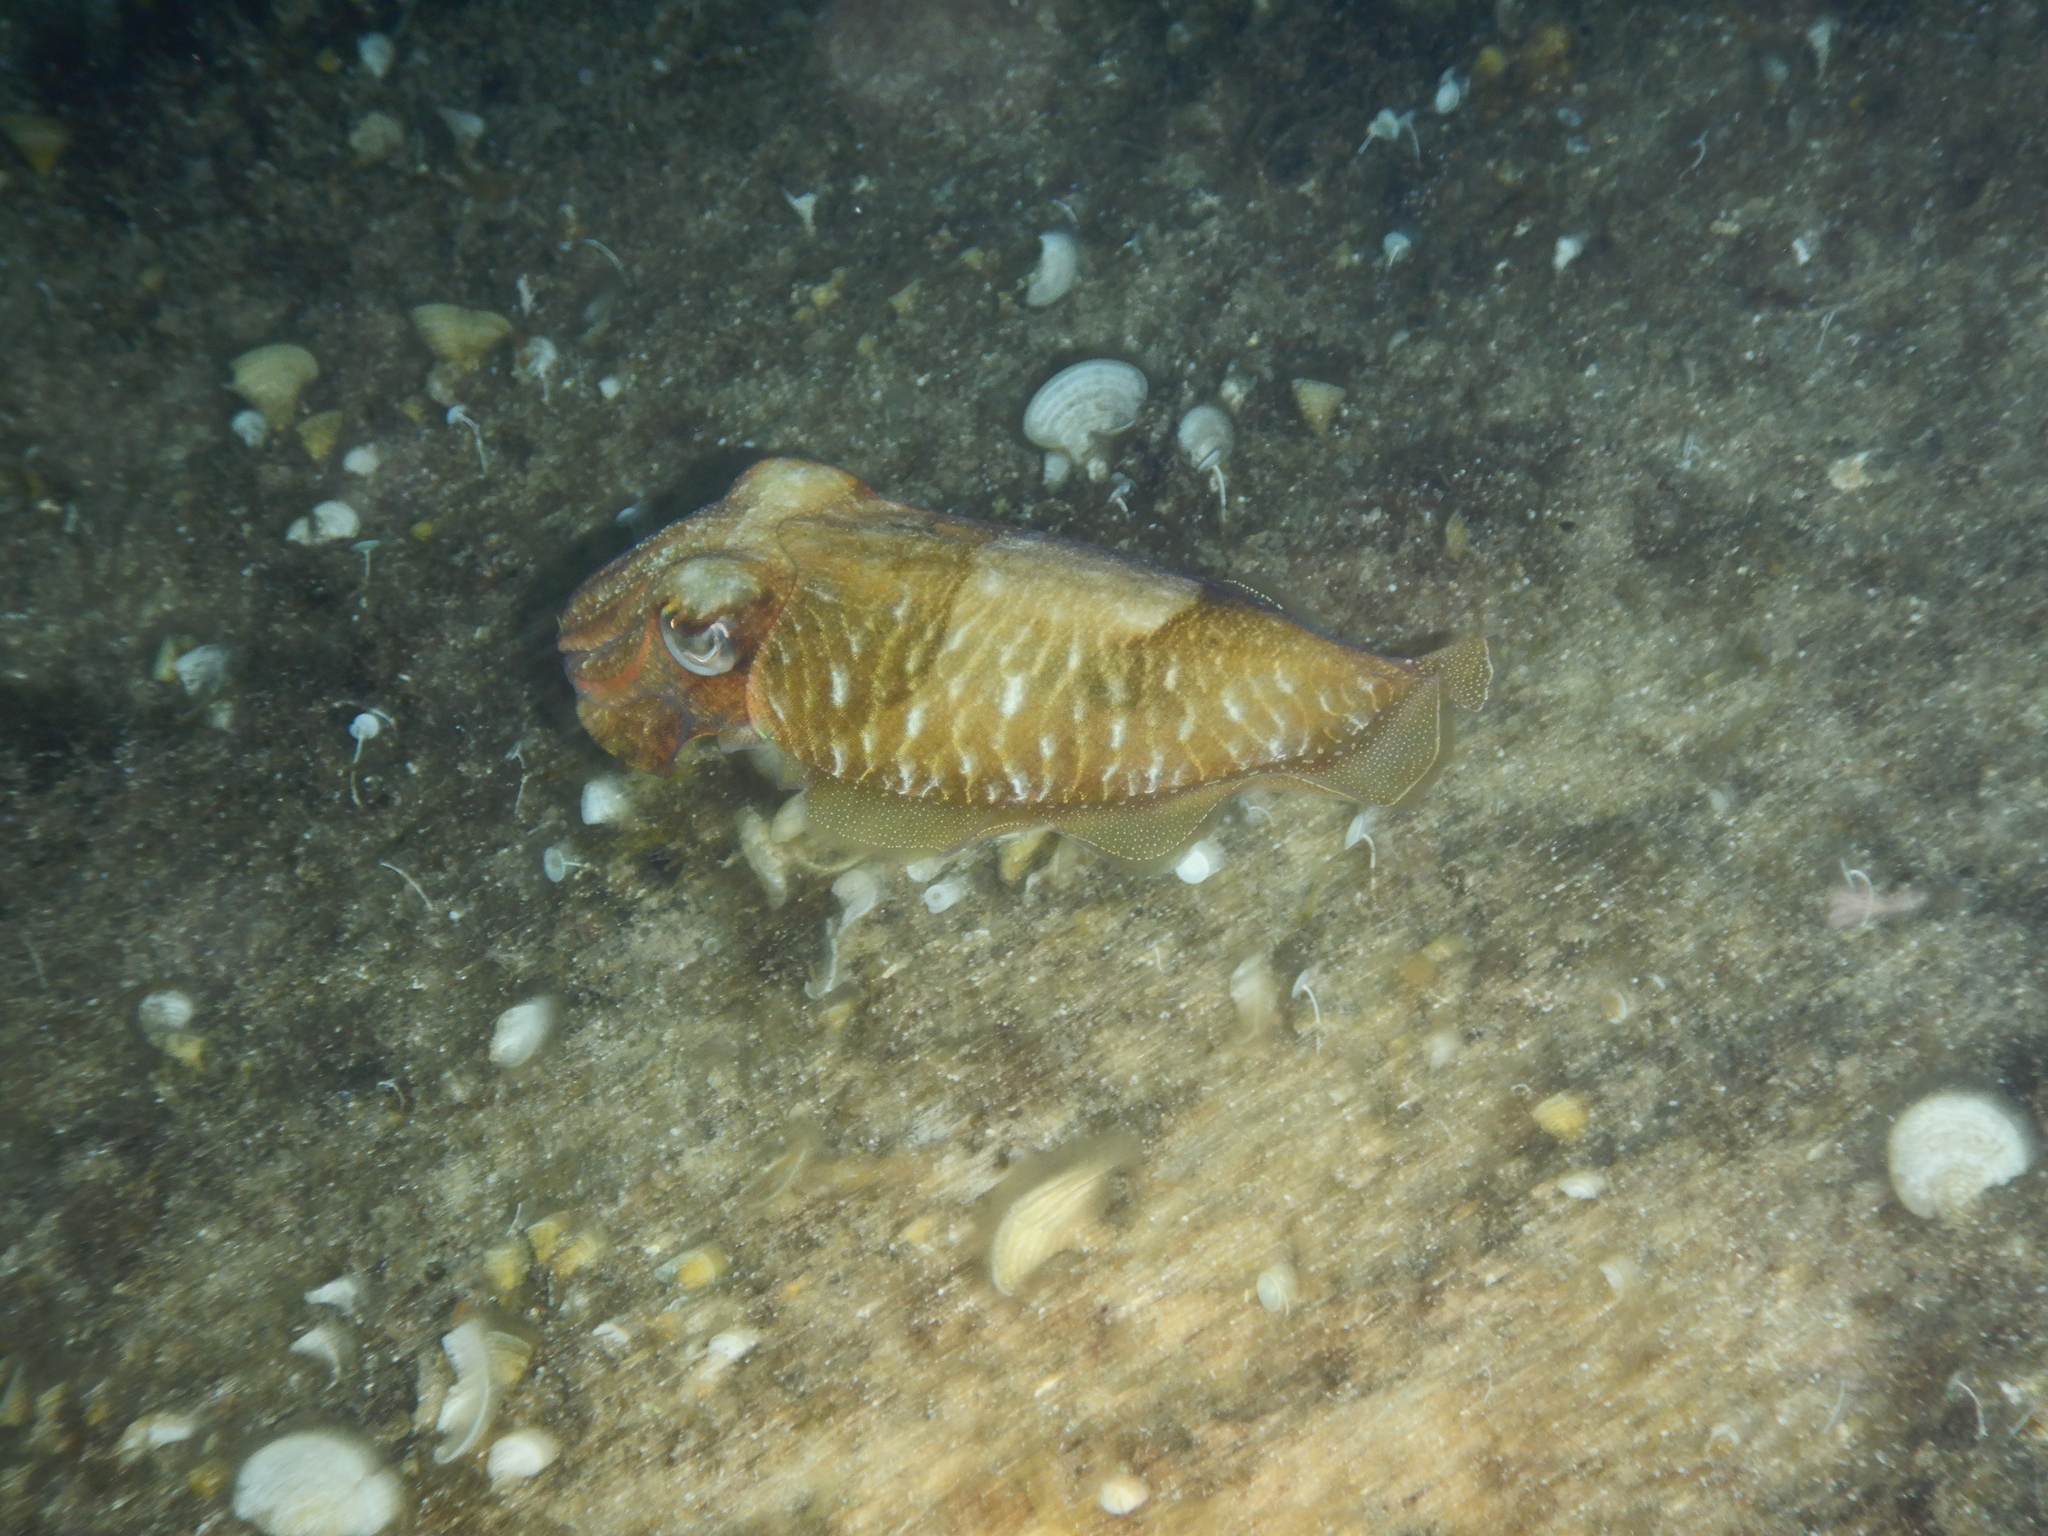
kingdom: Animalia
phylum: Mollusca
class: Cephalopoda
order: Sepiida
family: Sepiidae
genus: Sepia
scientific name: Sepia officinalis
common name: Common cuttlefish
